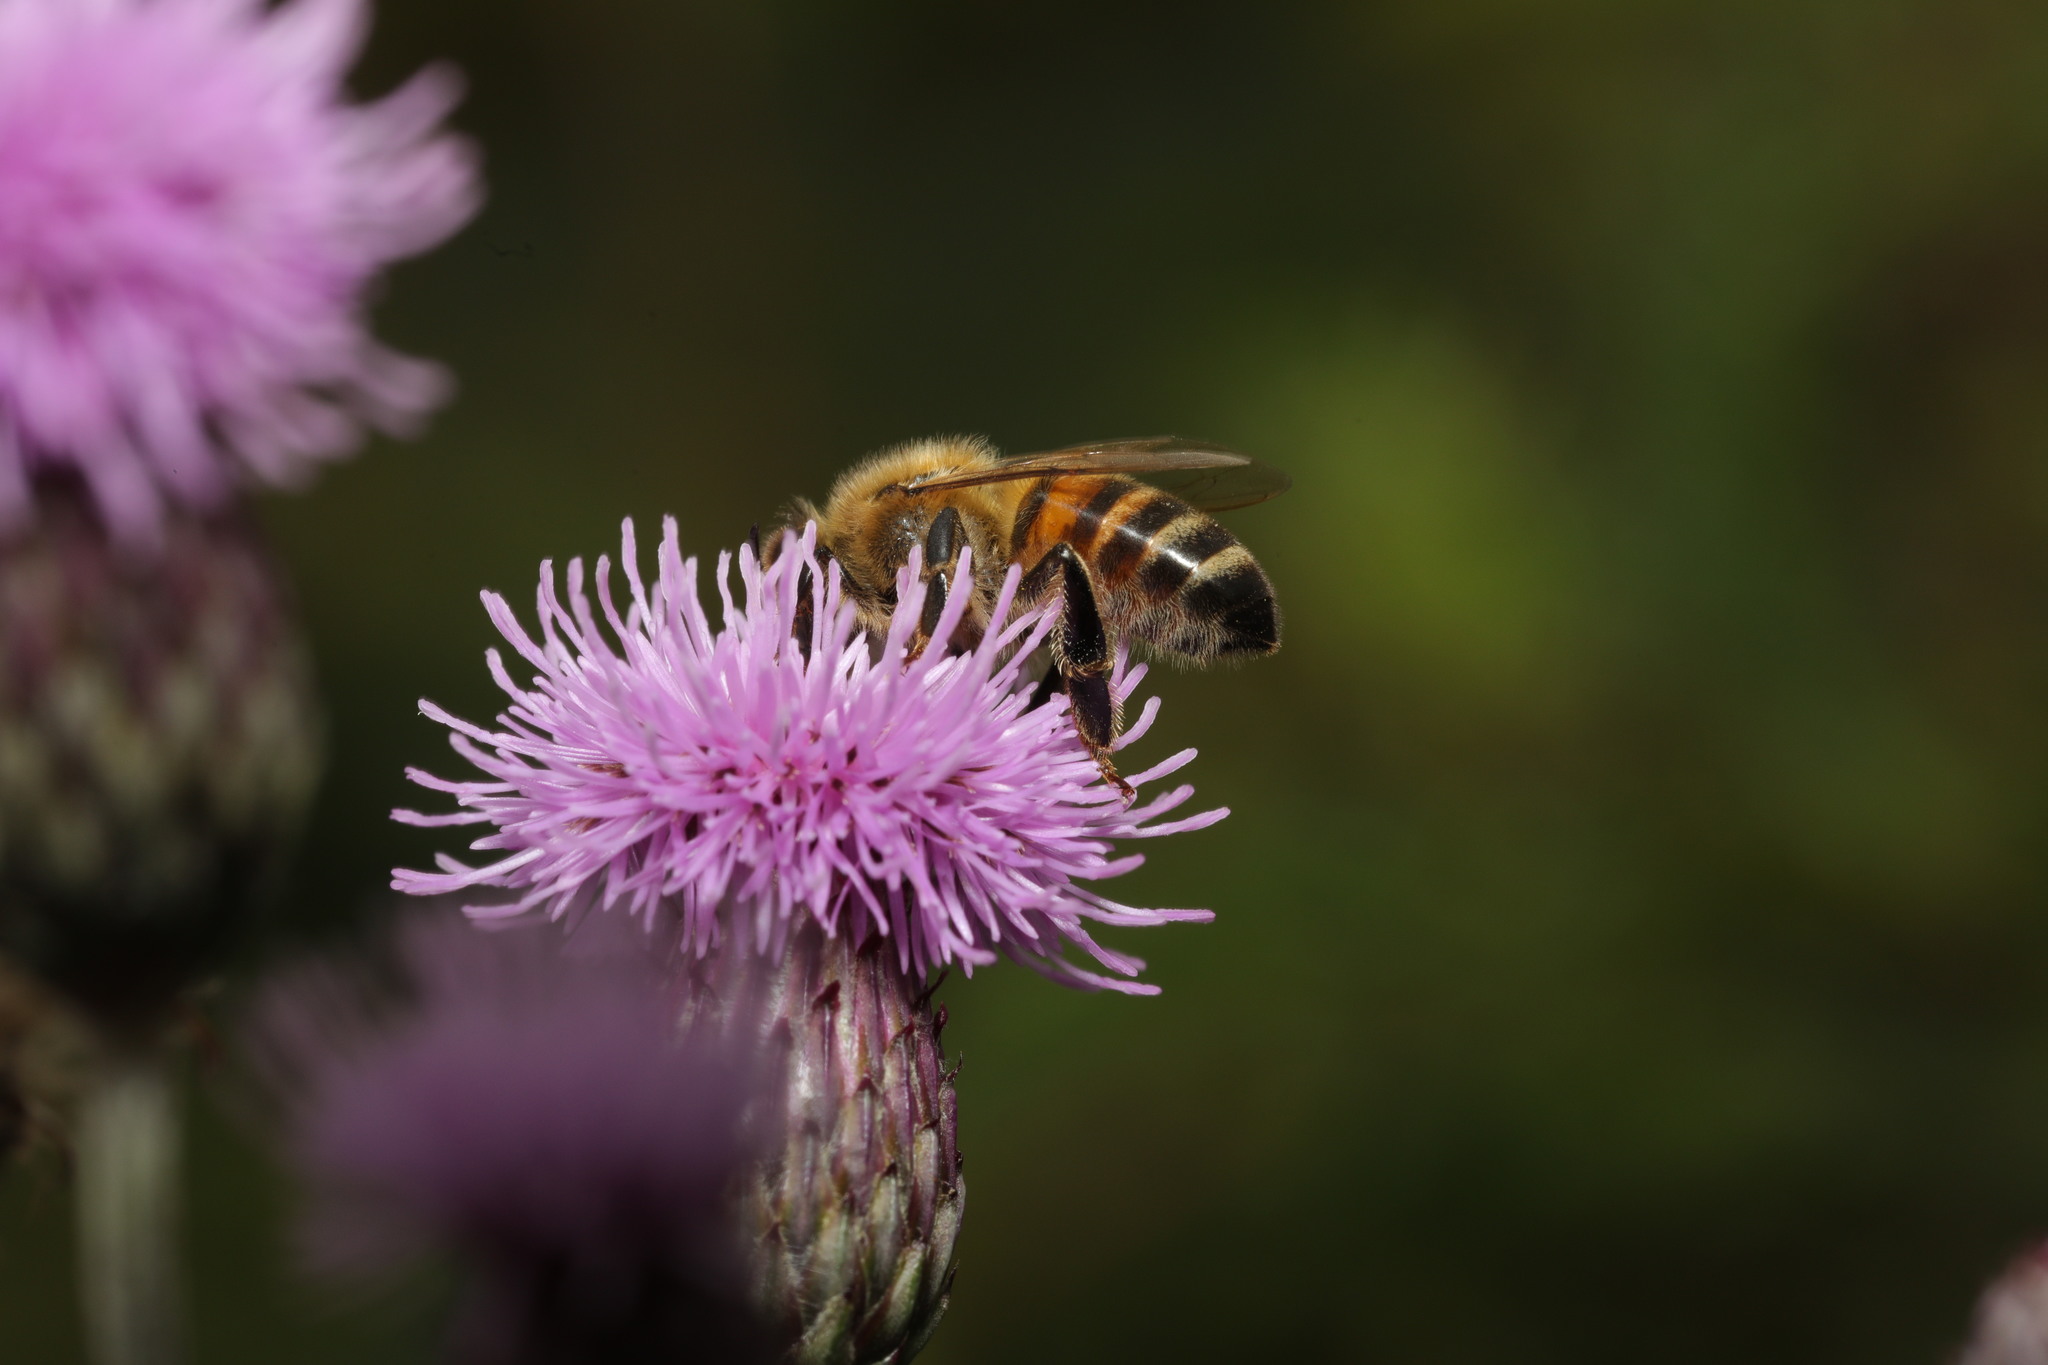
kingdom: Animalia
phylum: Arthropoda
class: Insecta
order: Hymenoptera
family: Apidae
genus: Apis
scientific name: Apis mellifera
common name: Honey bee
